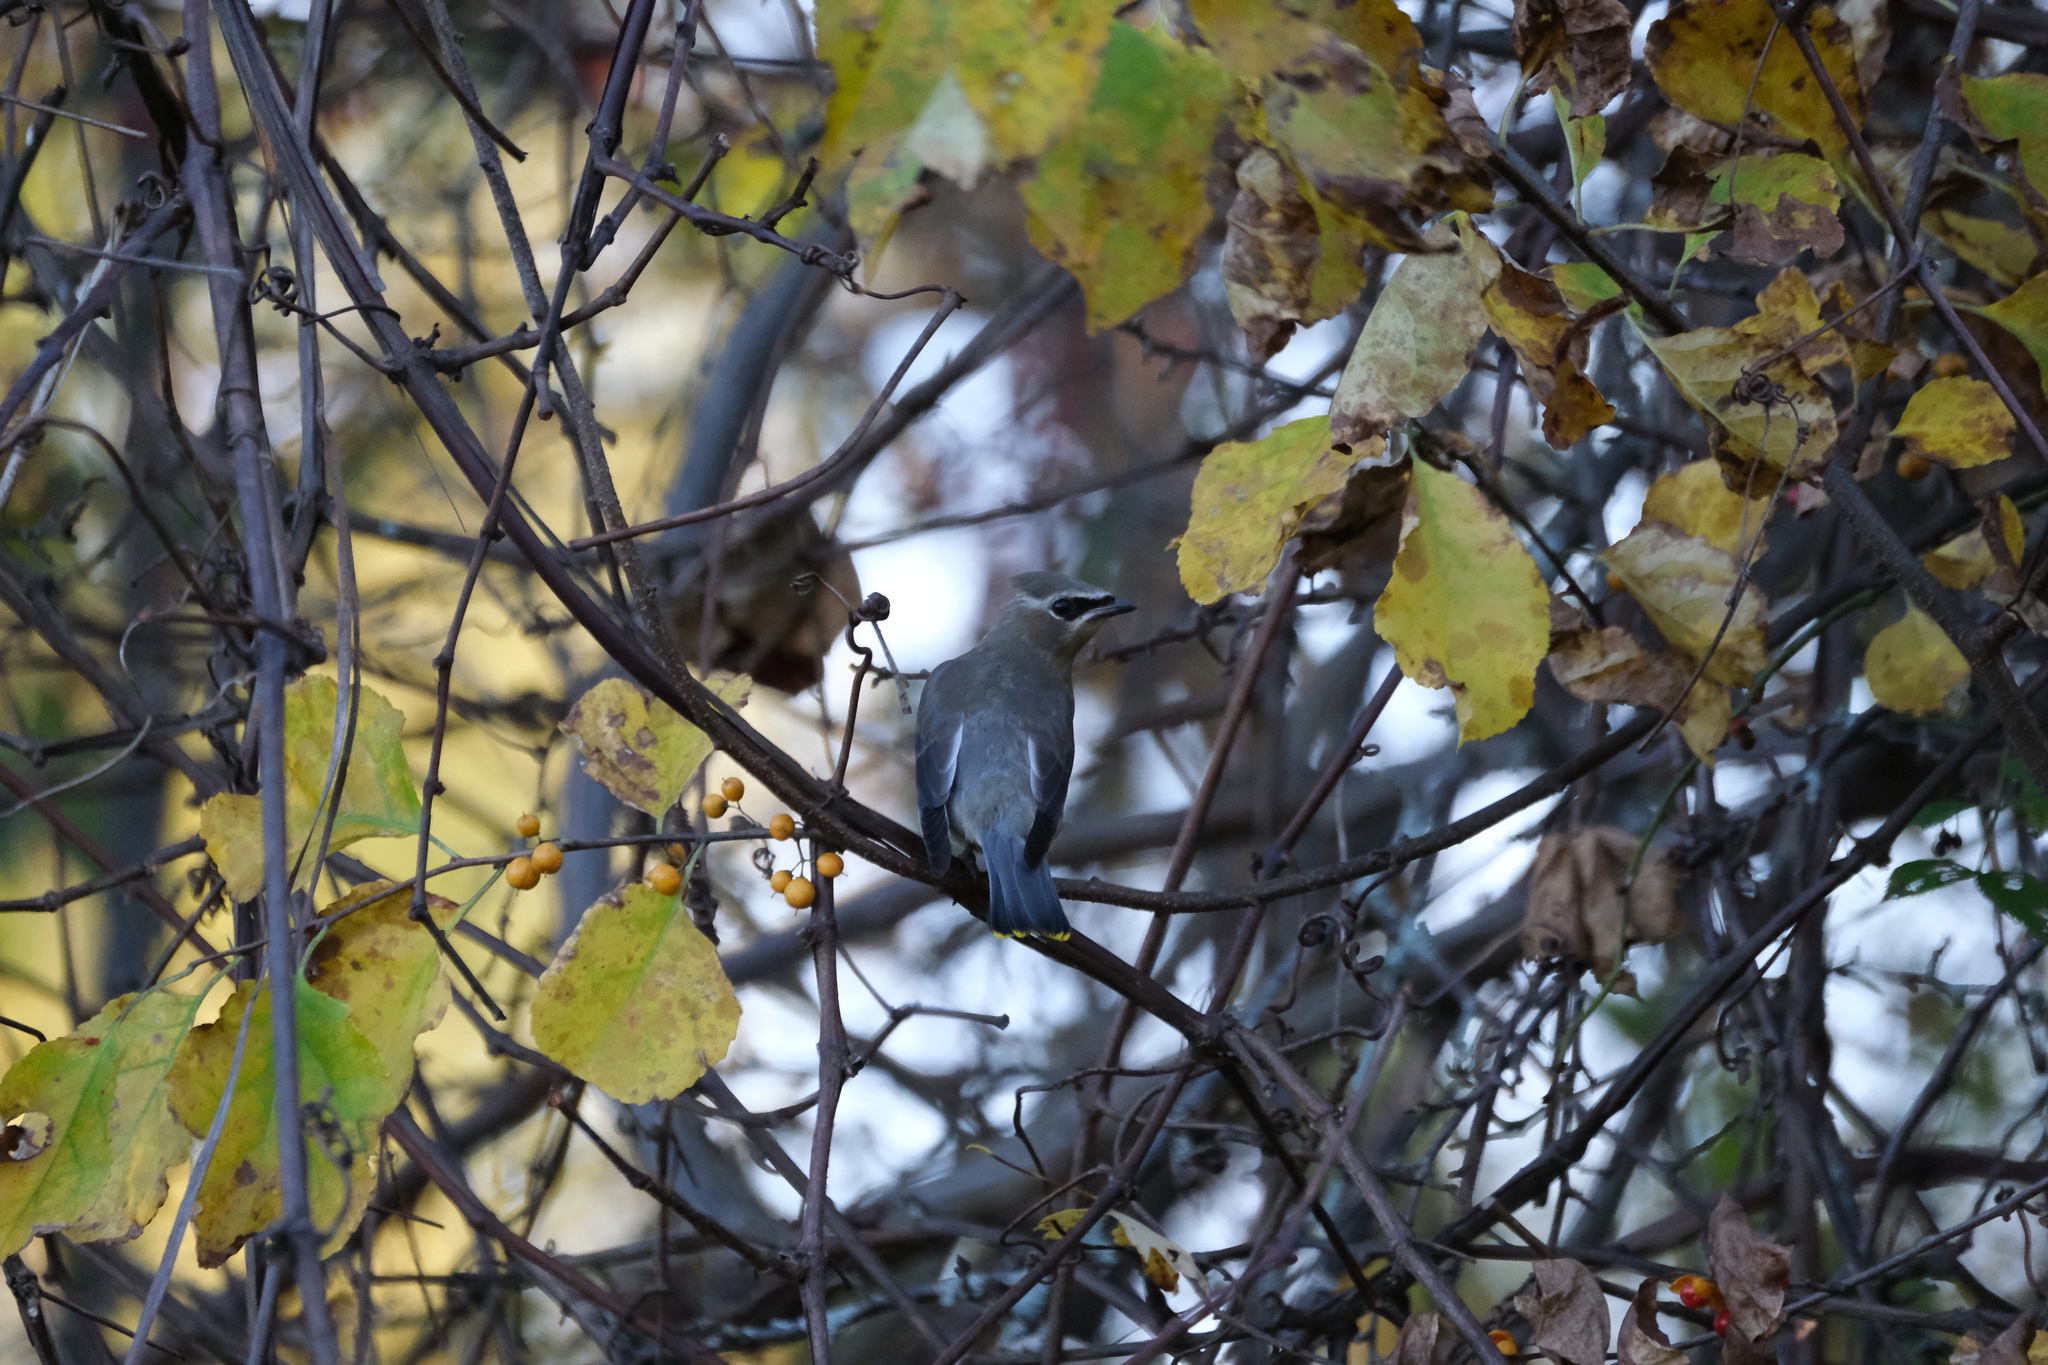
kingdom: Animalia
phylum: Chordata
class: Aves
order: Passeriformes
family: Bombycillidae
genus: Bombycilla
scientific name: Bombycilla cedrorum
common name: Cedar waxwing
